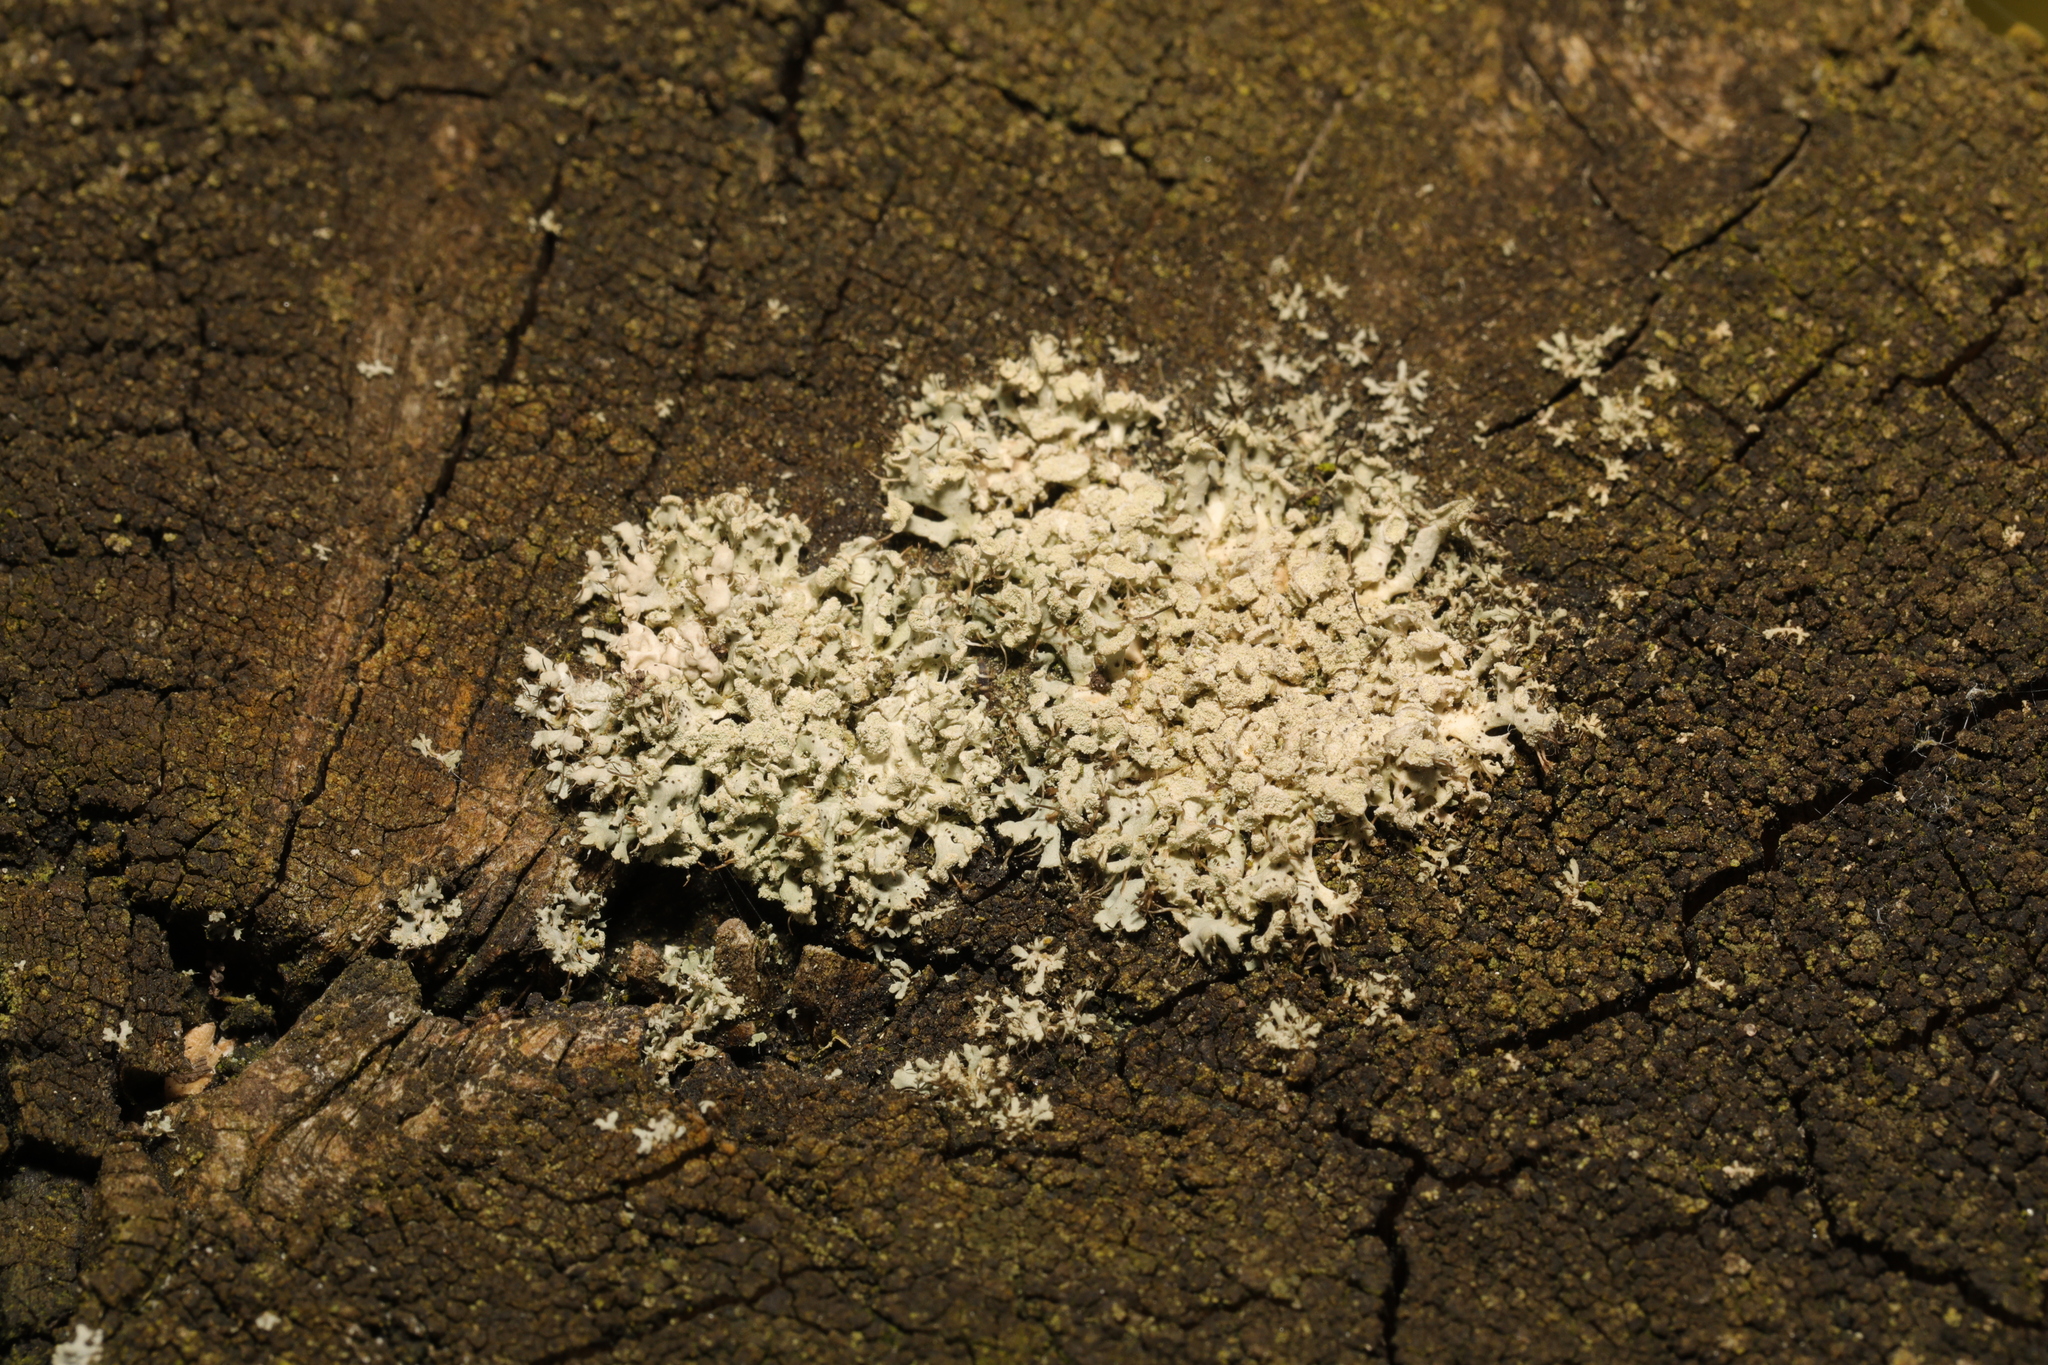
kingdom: Fungi
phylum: Ascomycota
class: Lecanoromycetes
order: Caliciales
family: Physciaceae
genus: Physcia
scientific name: Physcia tenella
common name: Fringed rosette lichen
